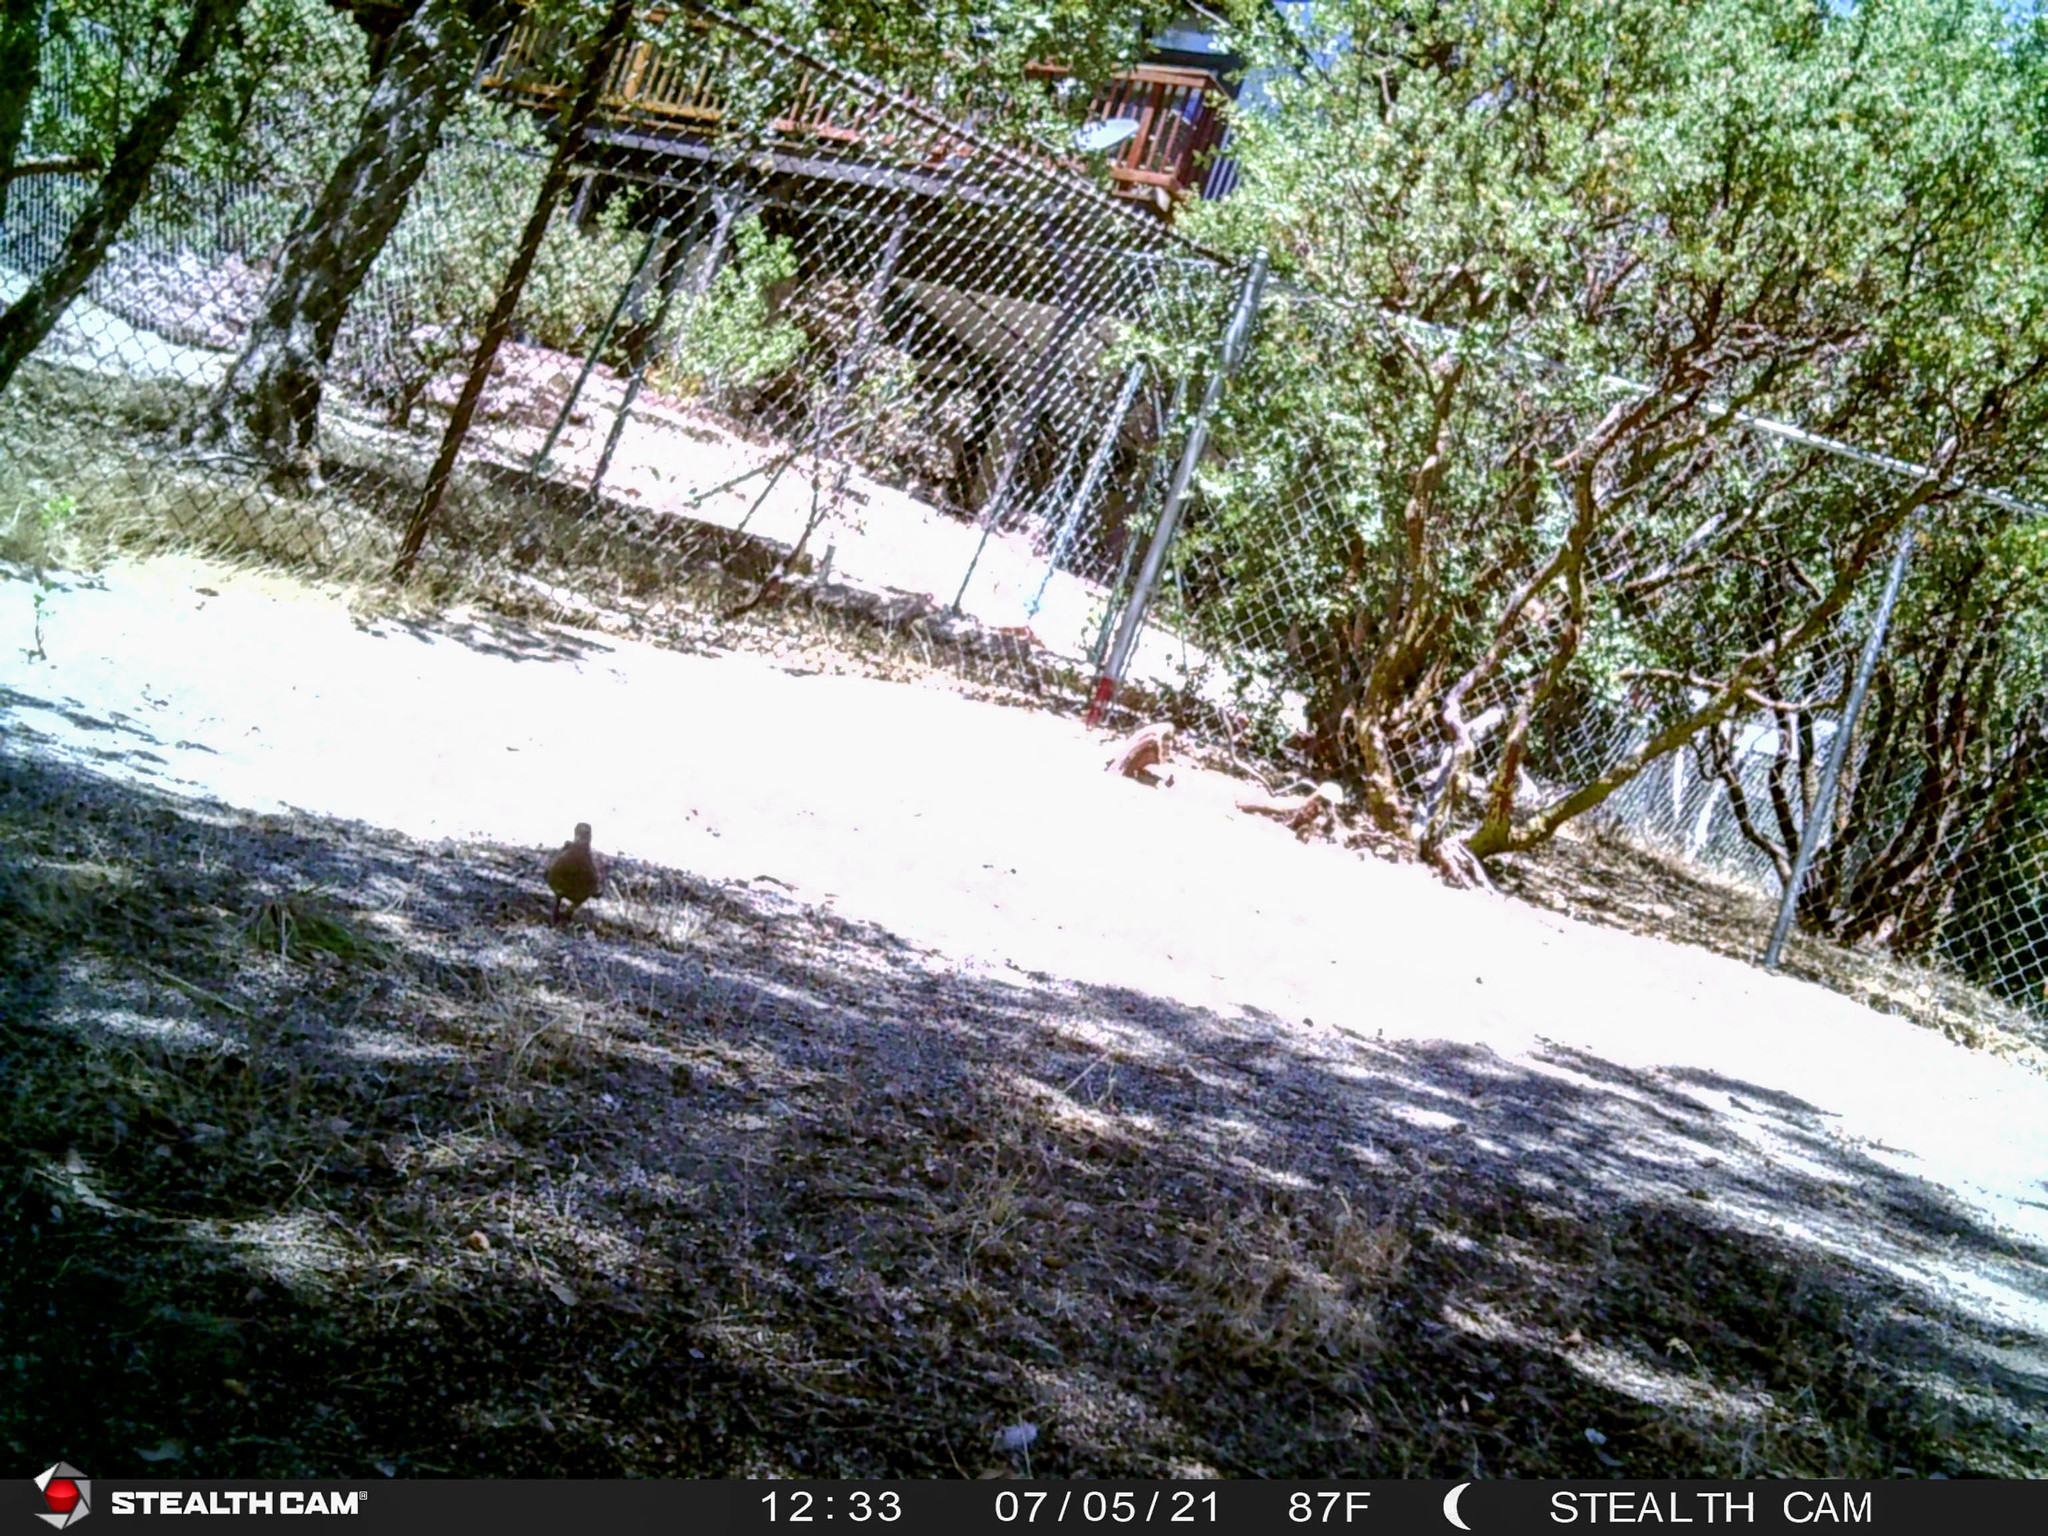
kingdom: Animalia
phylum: Chordata
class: Aves
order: Columbiformes
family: Columbidae
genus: Zenaida
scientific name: Zenaida macroura
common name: Mourning dove
